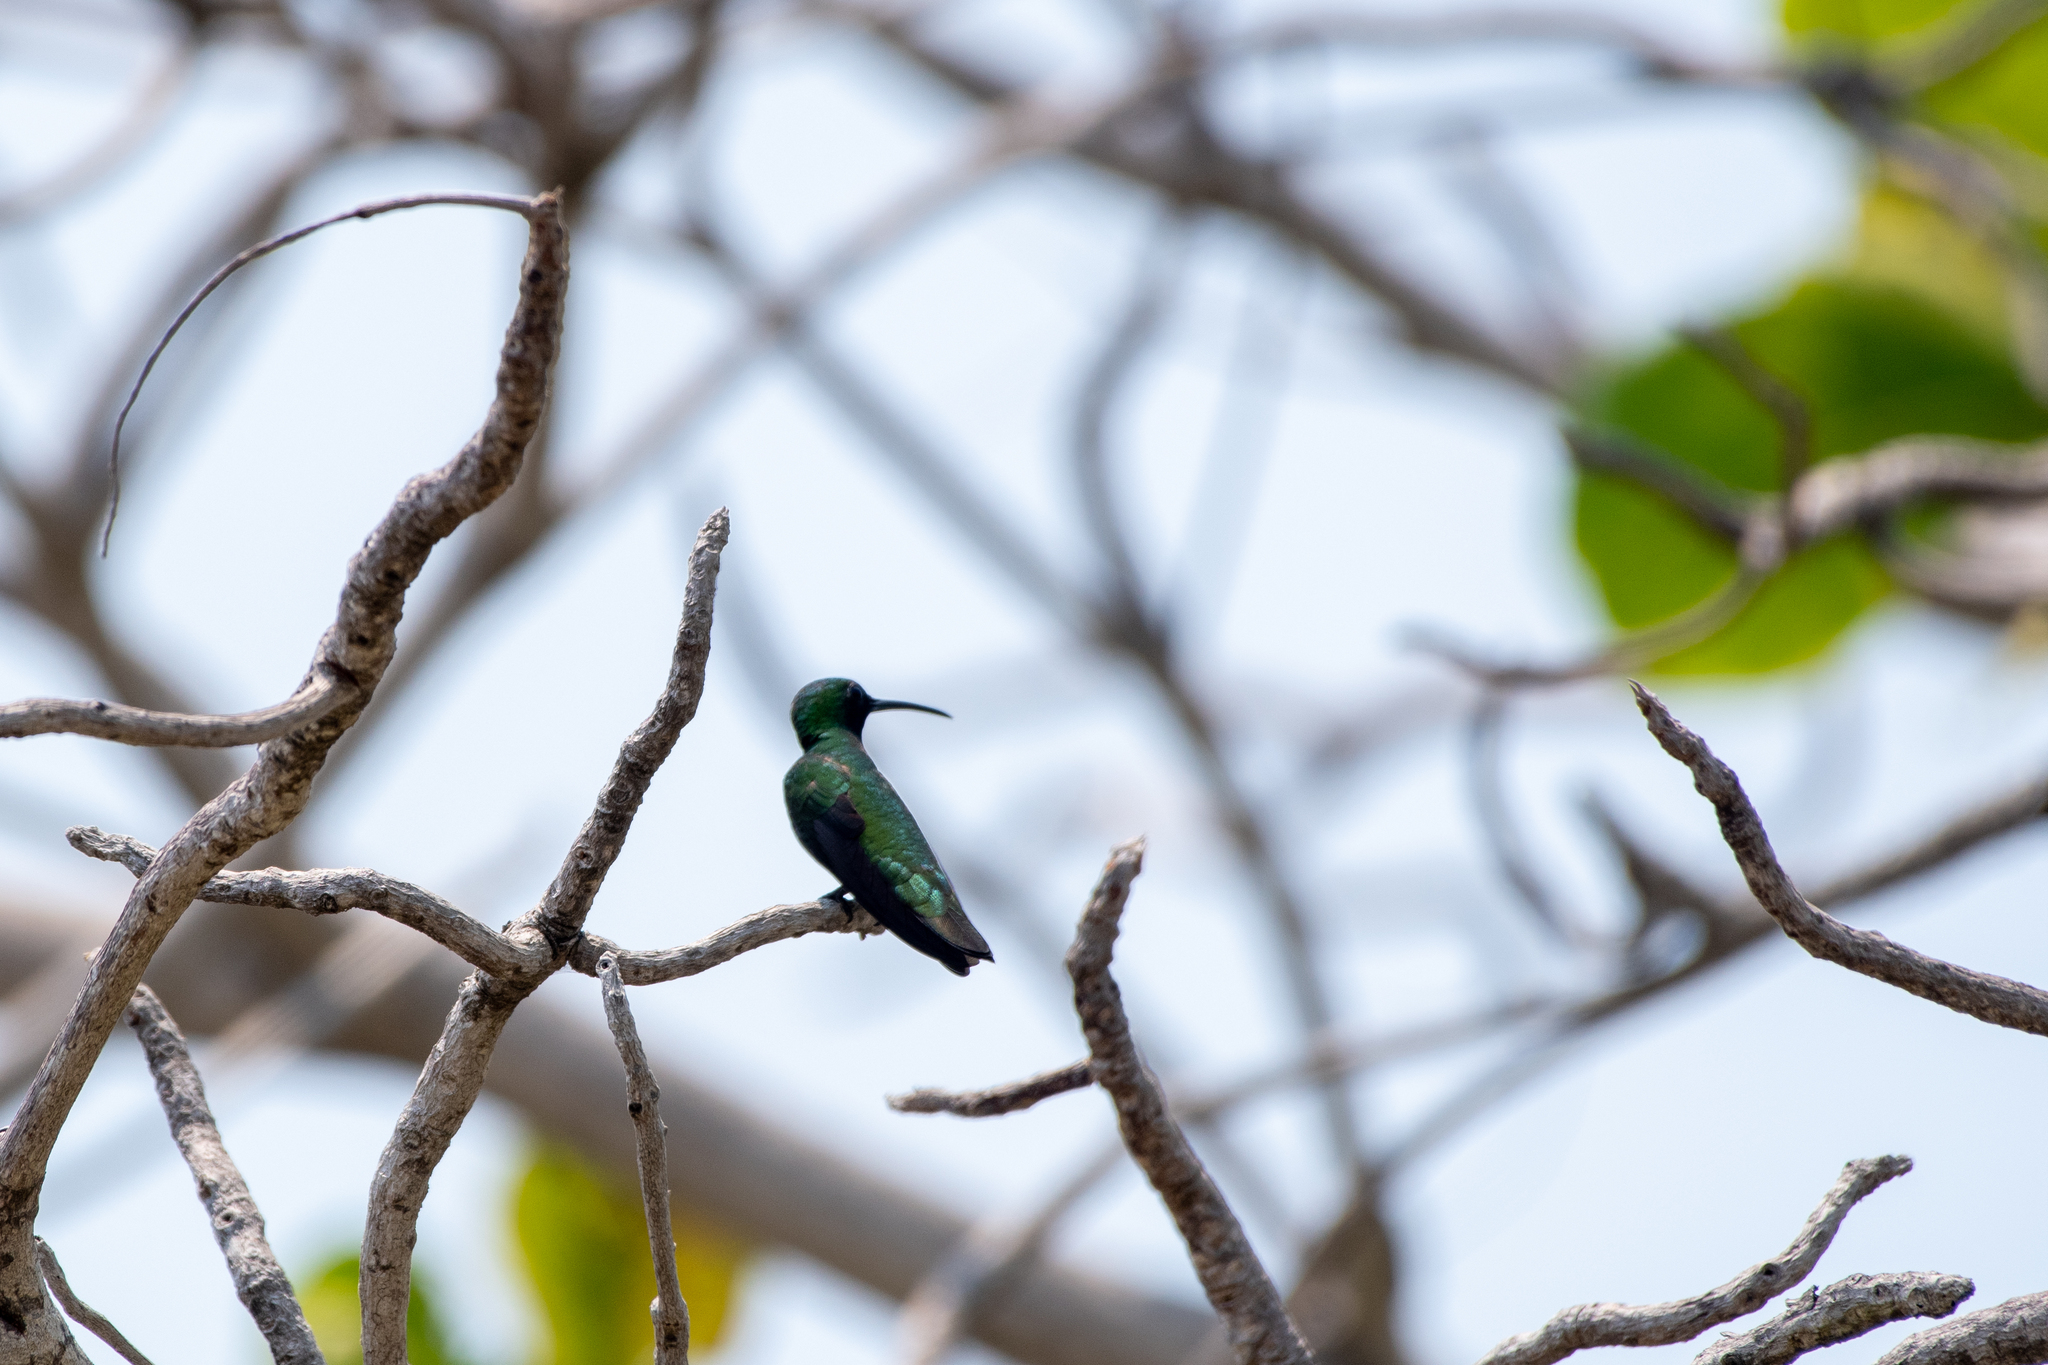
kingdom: Animalia
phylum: Chordata
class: Aves
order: Apodiformes
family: Trochilidae
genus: Anthracothorax
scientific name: Anthracothorax prevostii
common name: Green-breasted mango
